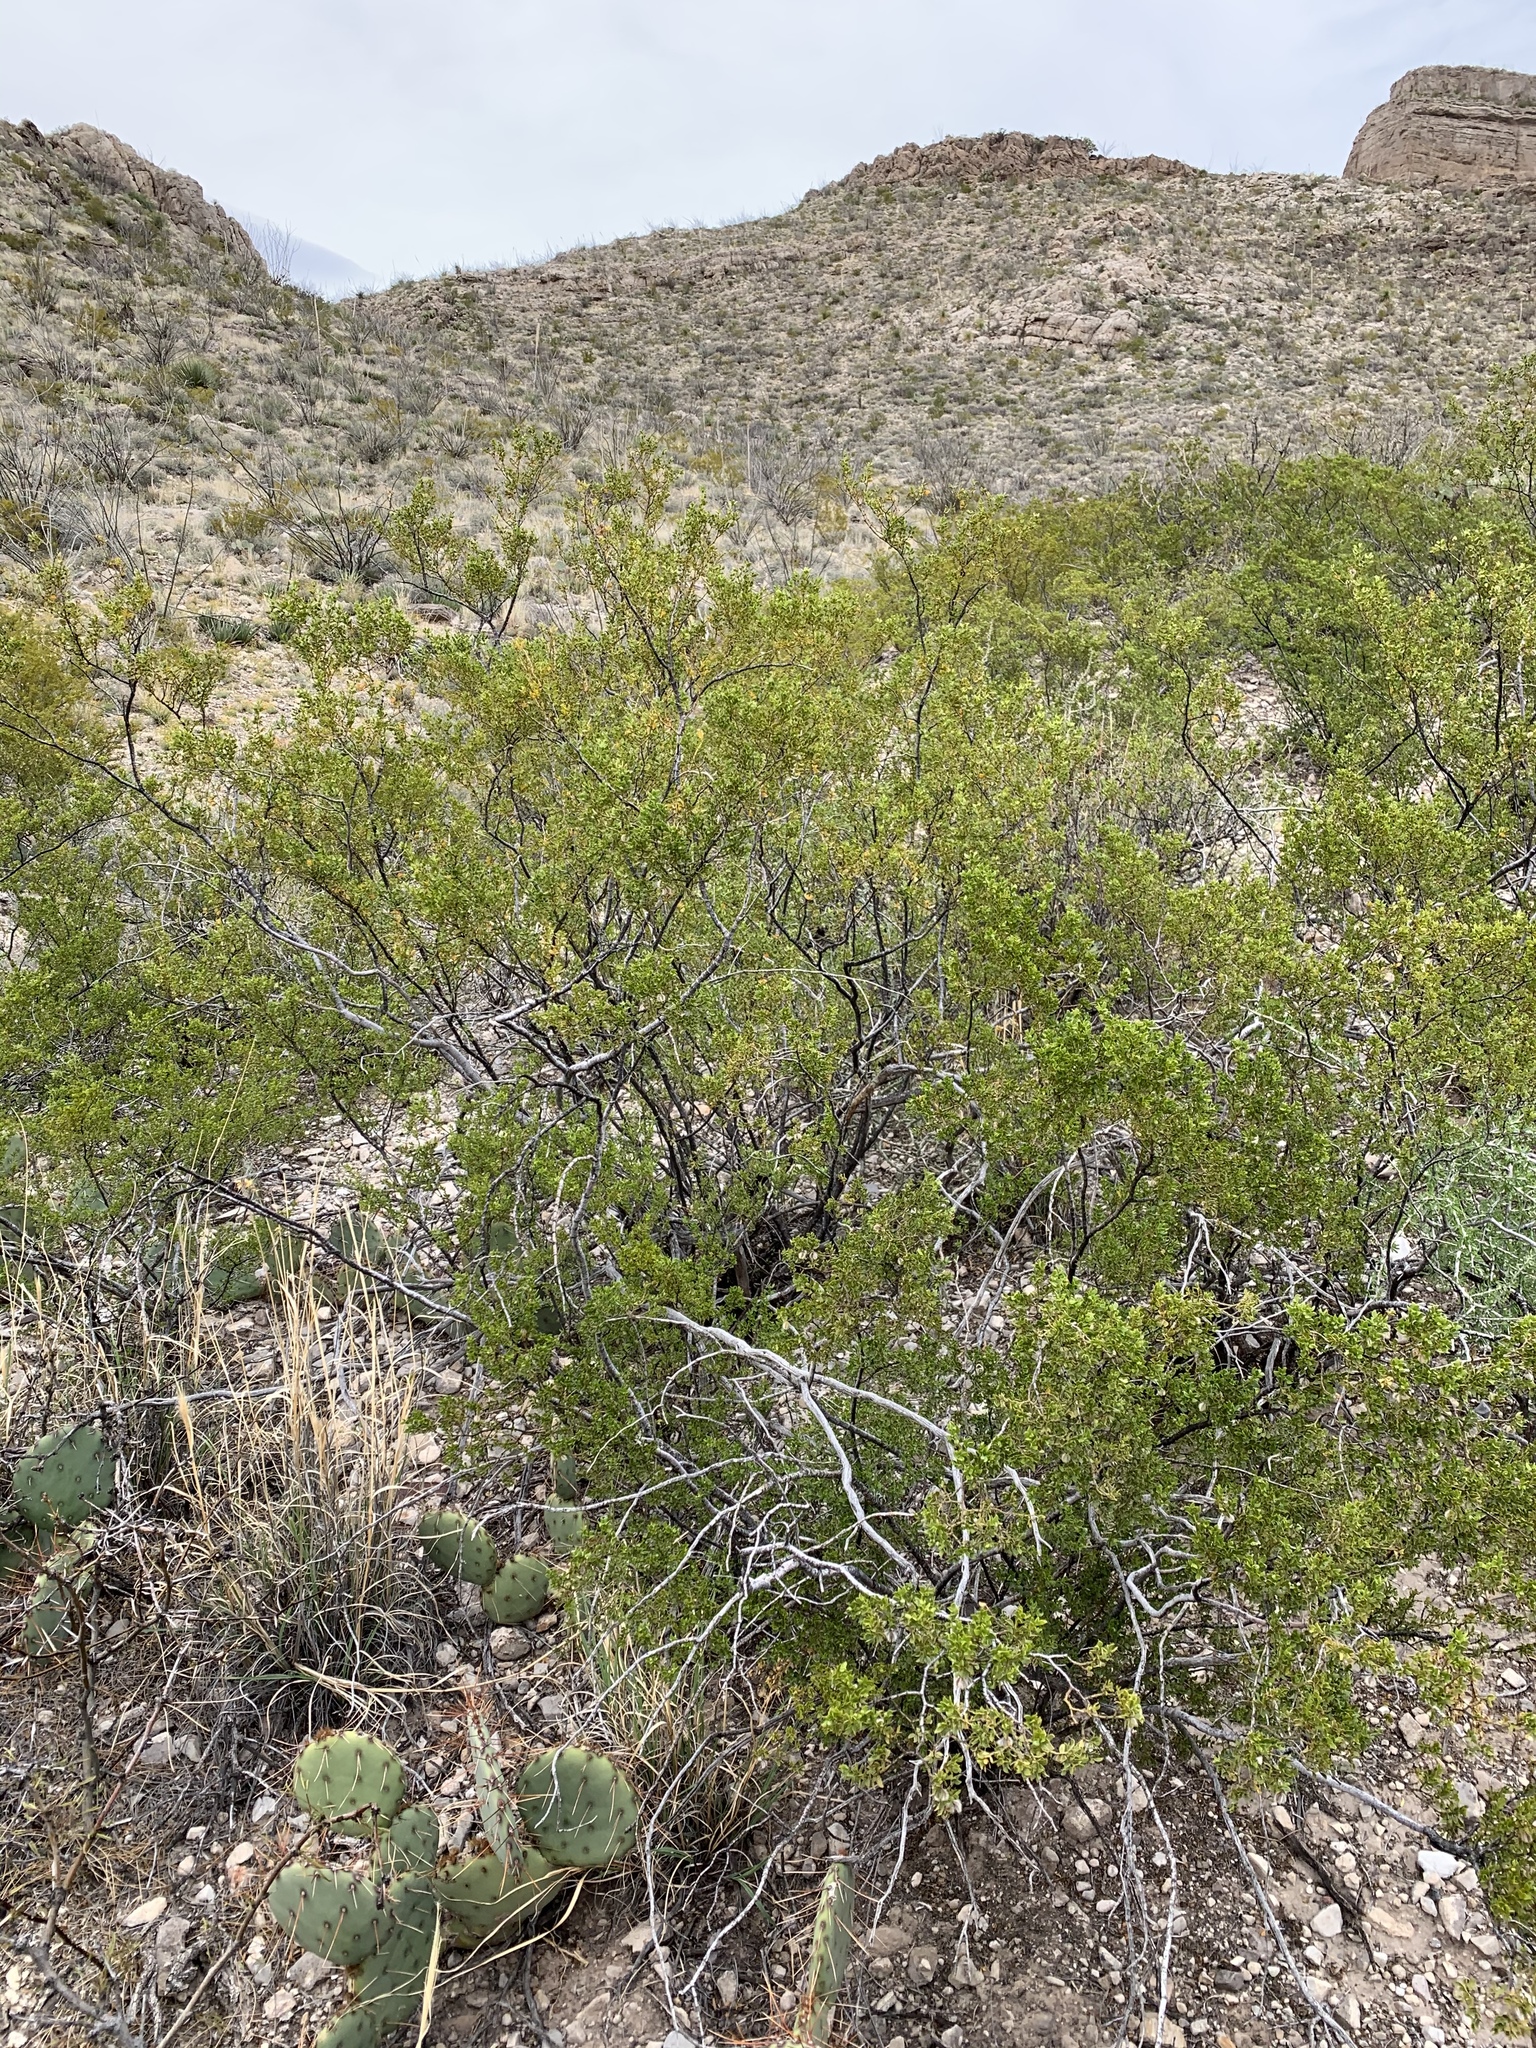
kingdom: Plantae
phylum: Tracheophyta
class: Magnoliopsida
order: Zygophyllales
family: Zygophyllaceae
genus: Larrea
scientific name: Larrea tridentata
